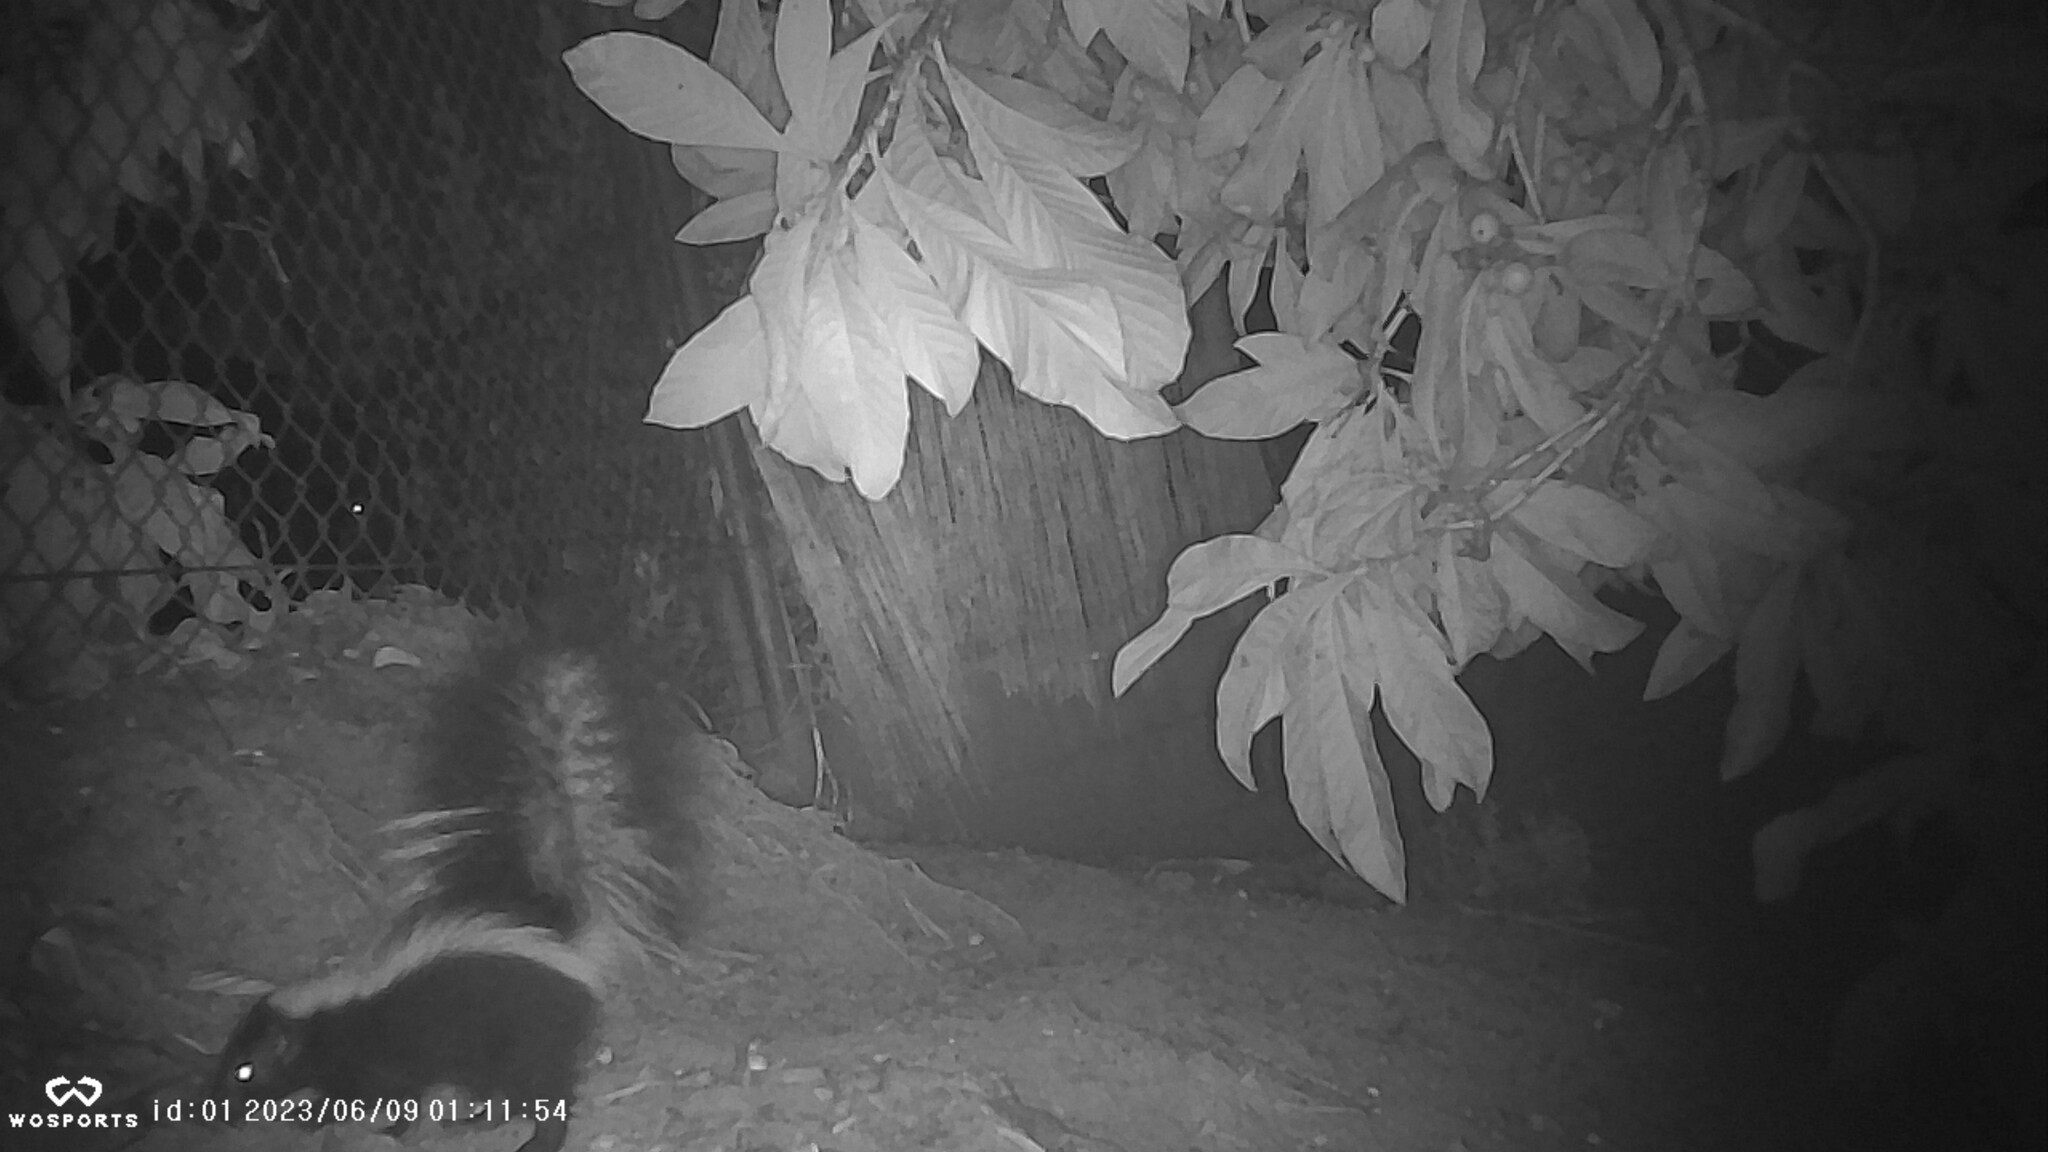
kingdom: Animalia
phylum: Chordata
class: Mammalia
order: Carnivora
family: Mephitidae
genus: Mephitis
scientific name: Mephitis mephitis
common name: Striped skunk
